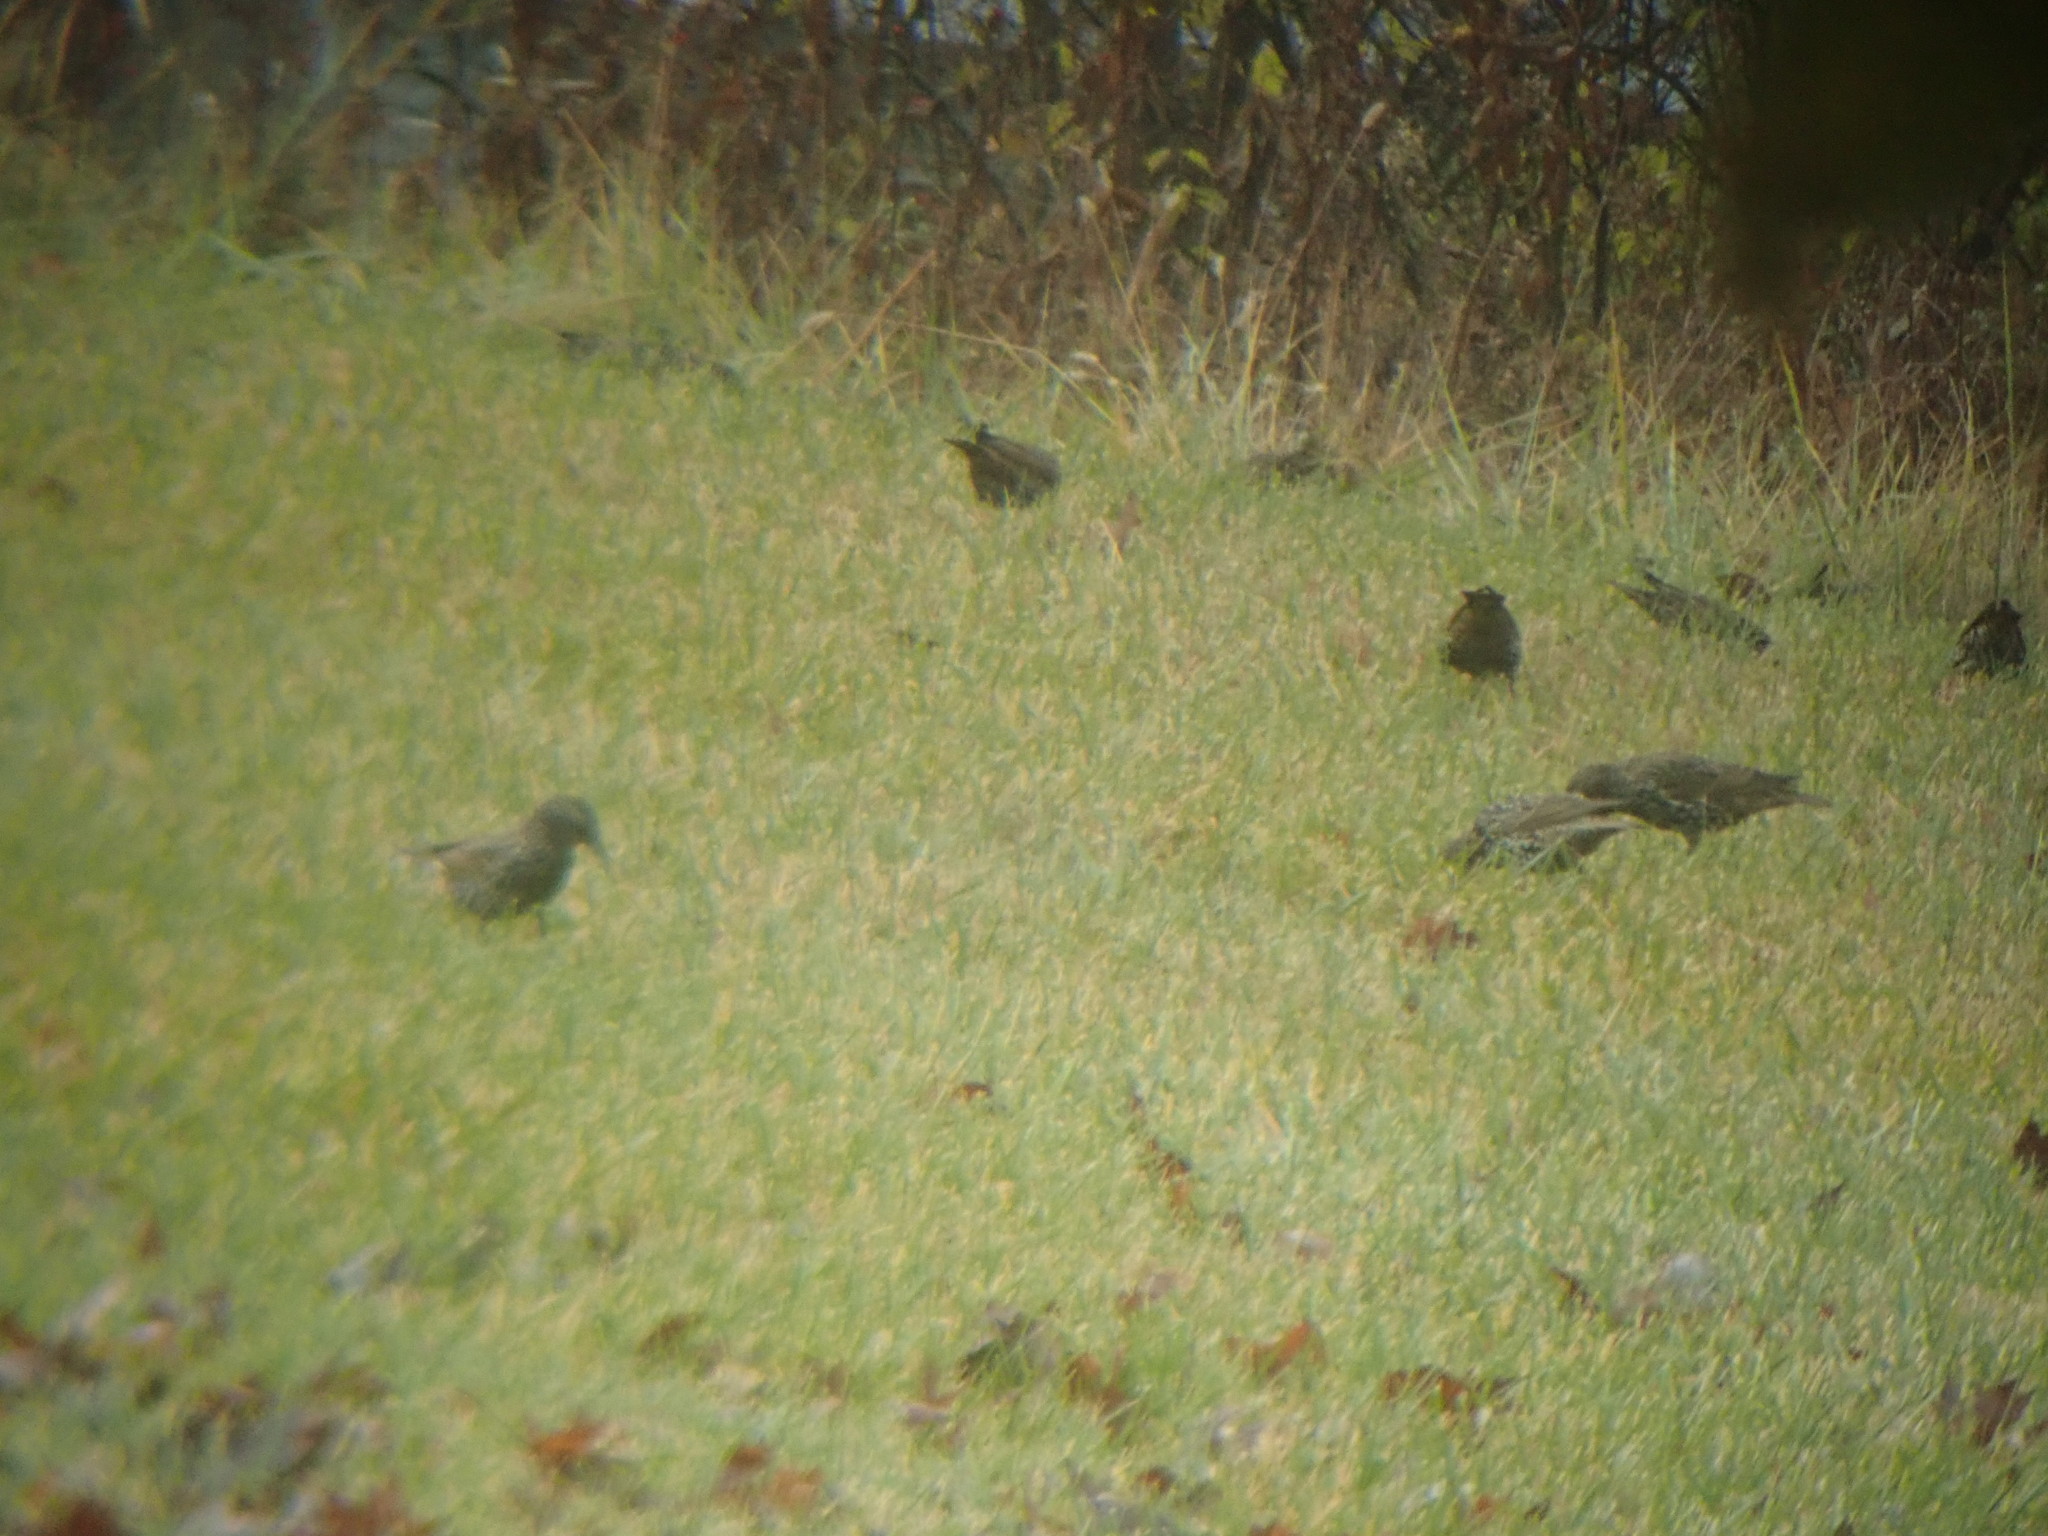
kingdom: Animalia
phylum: Chordata
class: Aves
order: Passeriformes
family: Sturnidae
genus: Sturnus
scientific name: Sturnus vulgaris
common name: Common starling
